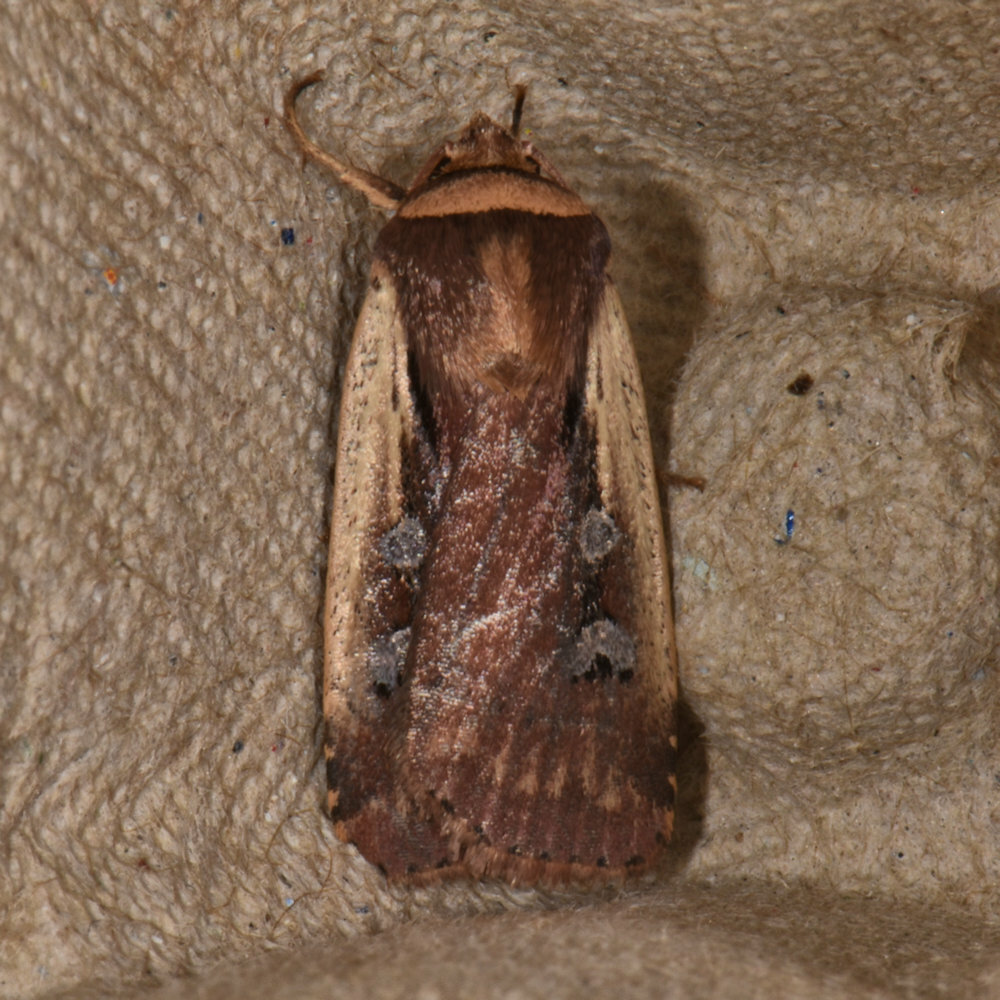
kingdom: Animalia
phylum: Arthropoda
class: Insecta
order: Lepidoptera
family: Noctuidae
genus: Ochropleura
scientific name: Ochropleura implecta
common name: Flame-shouldered dart
